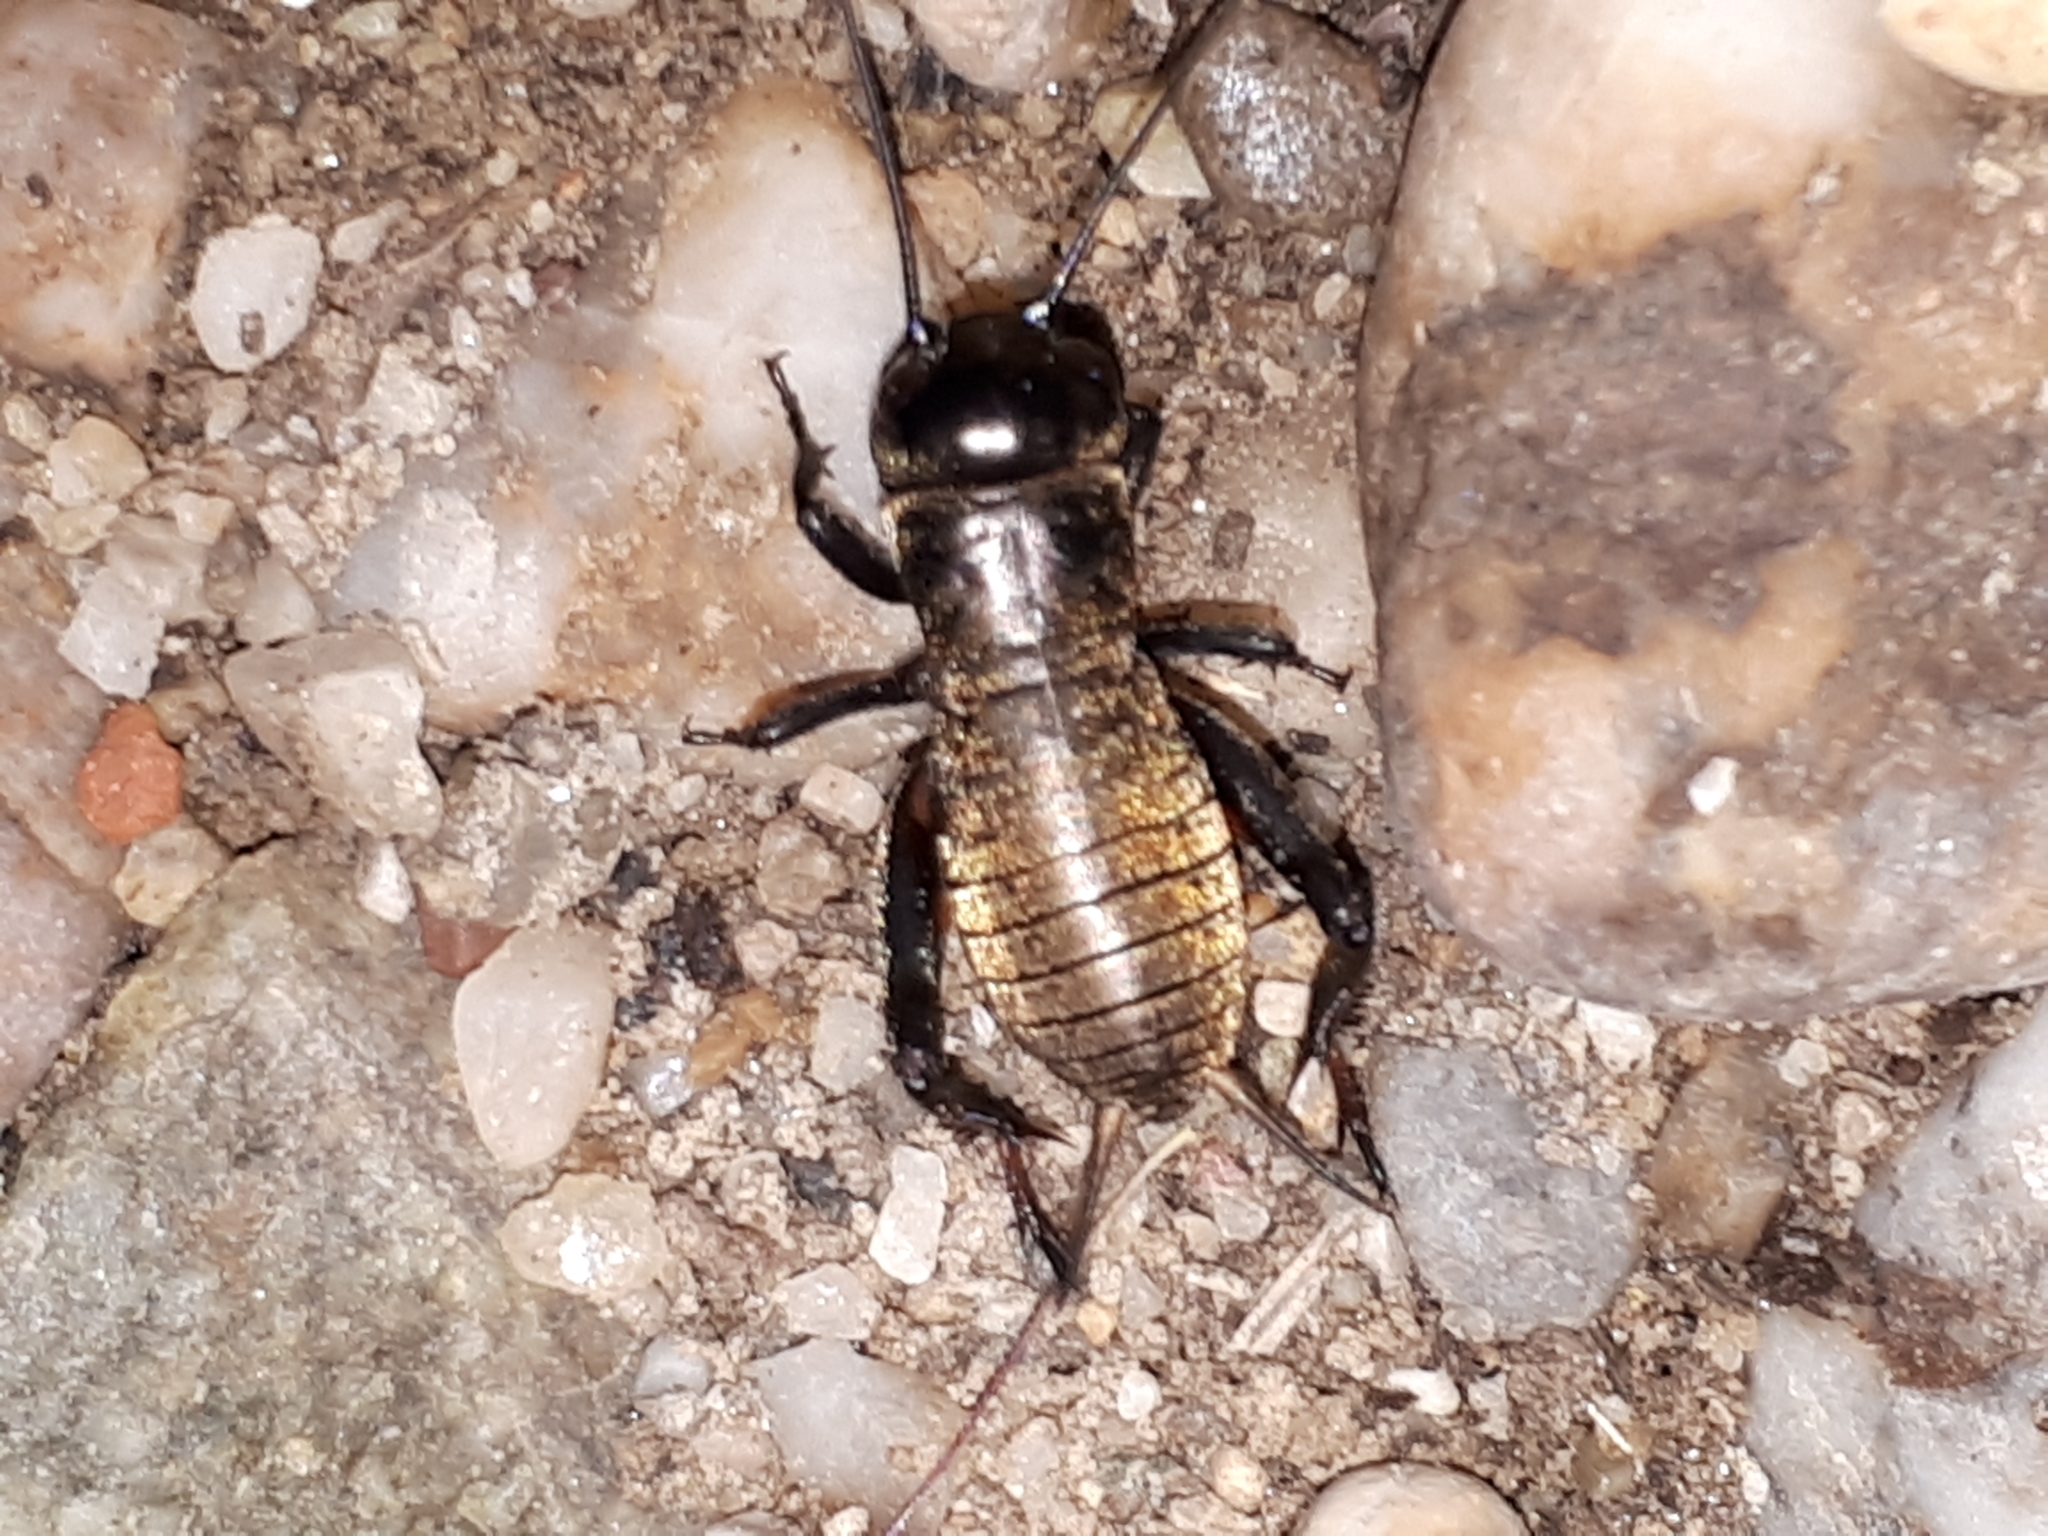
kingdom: Animalia
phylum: Arthropoda
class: Insecta
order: Orthoptera
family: Gryllidae
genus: Gryllus
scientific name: Gryllus campestris
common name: Field cricket
